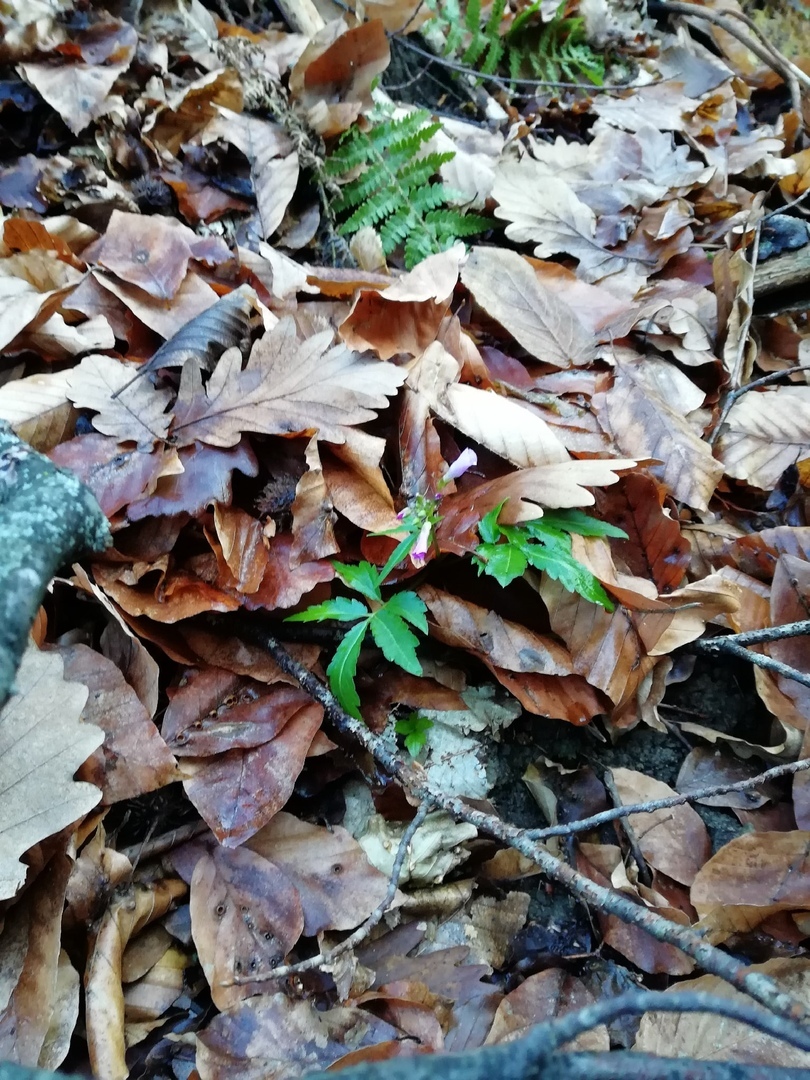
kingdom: Plantae
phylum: Tracheophyta
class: Magnoliopsida
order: Brassicales
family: Brassicaceae
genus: Cardamine
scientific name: Cardamine quinquefolia
